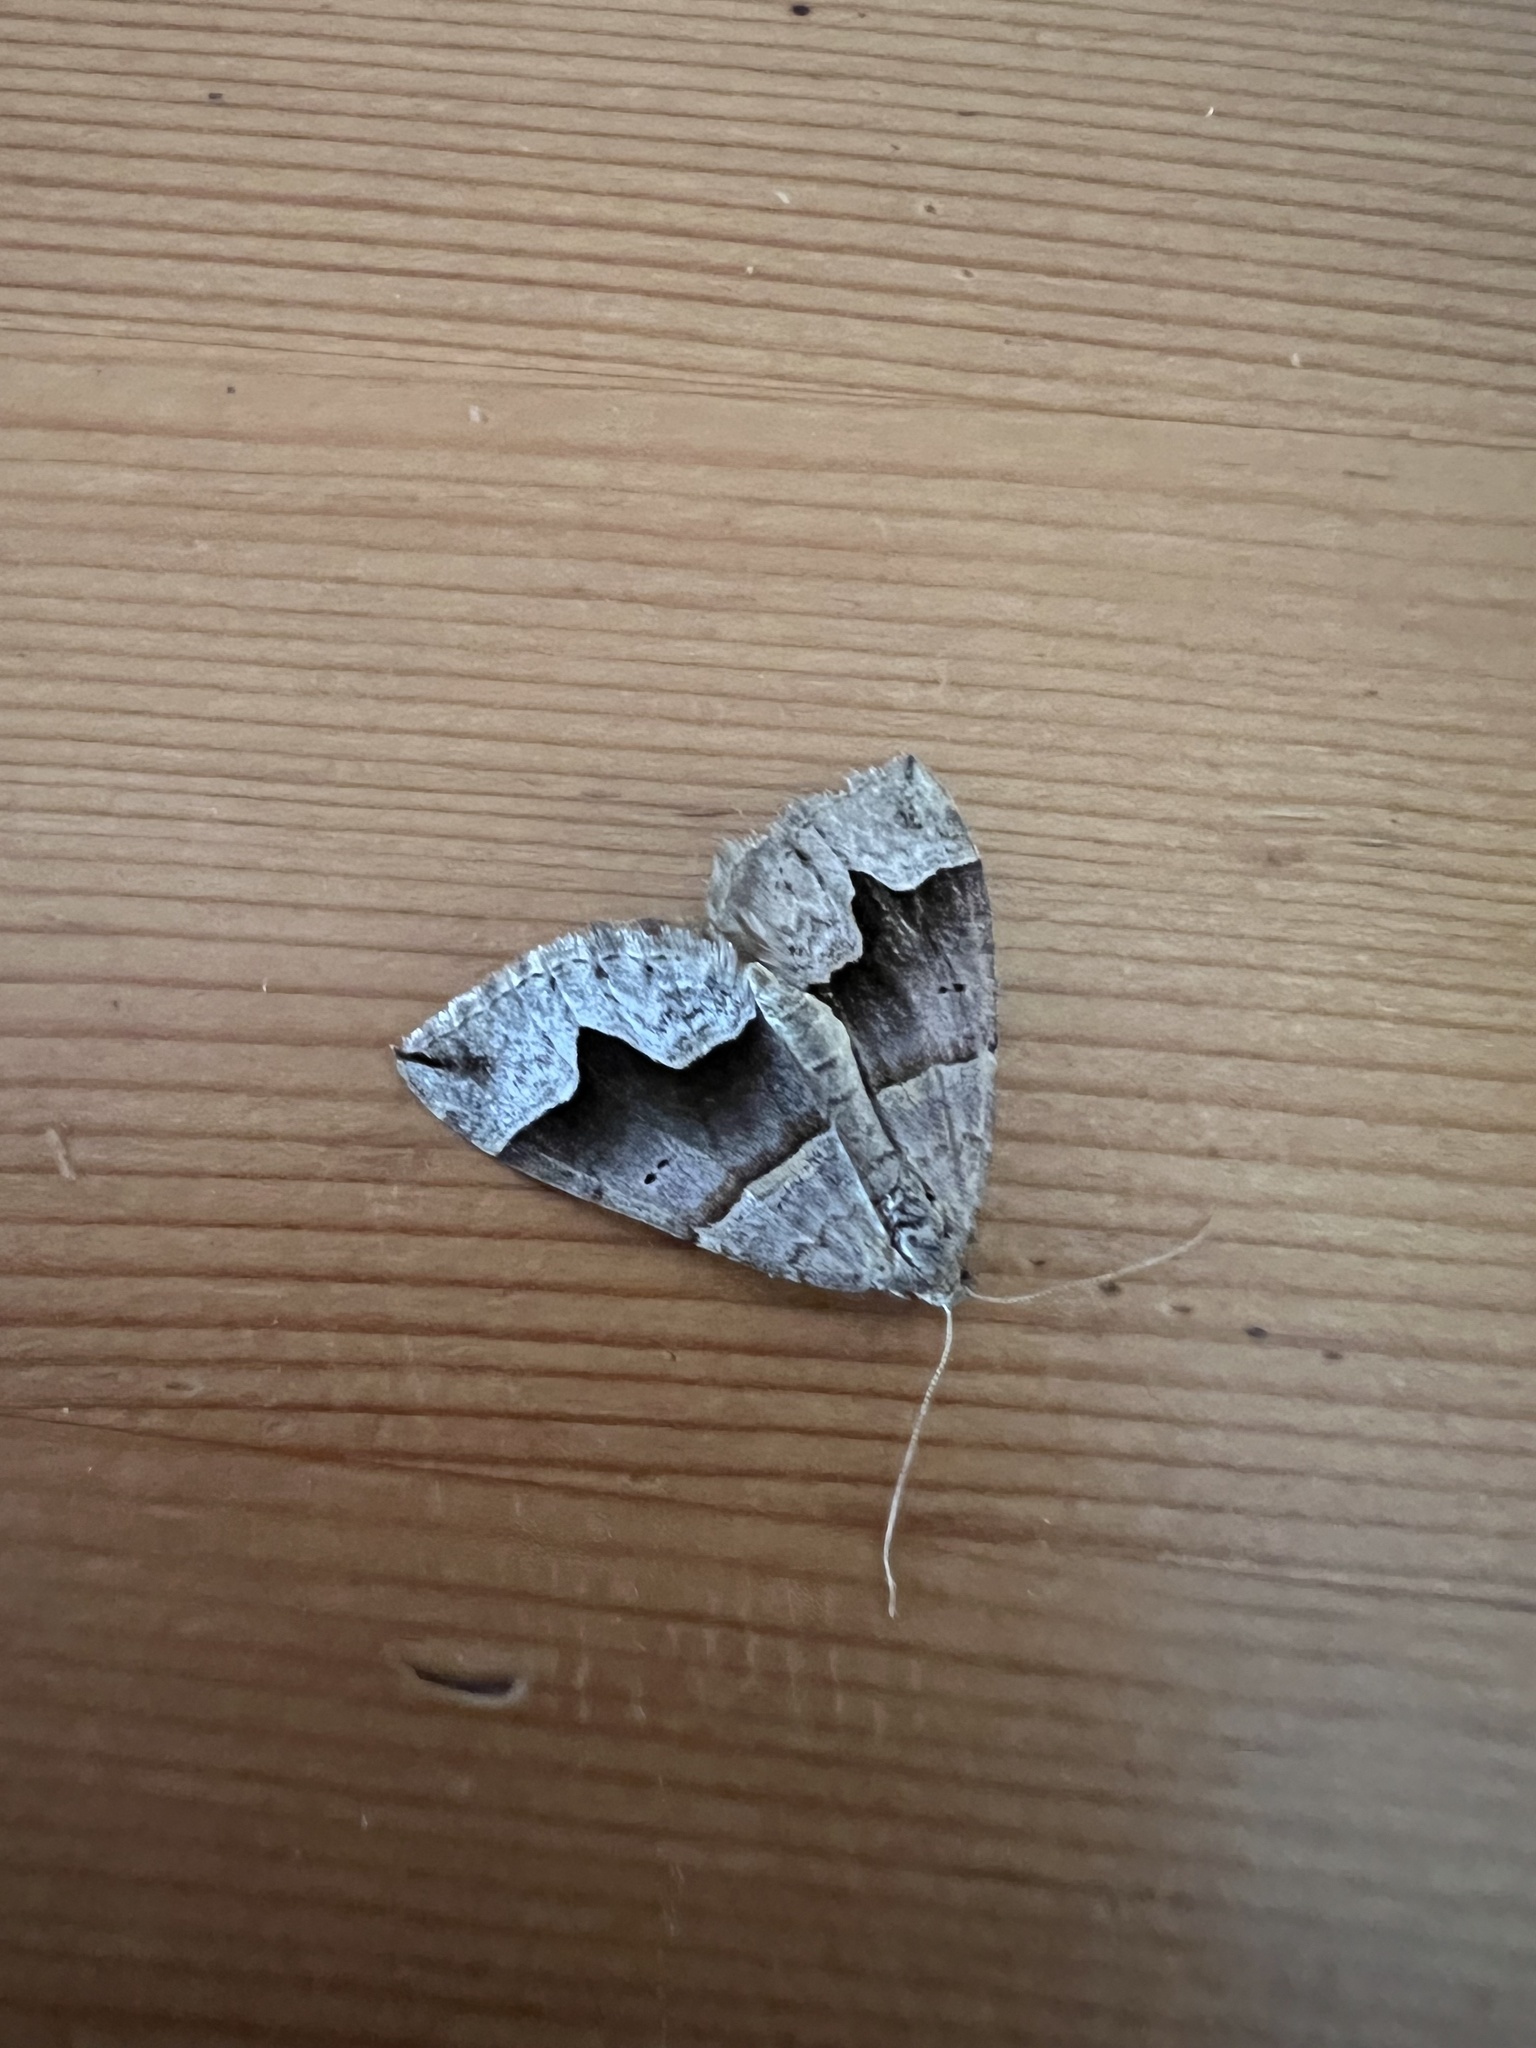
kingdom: Animalia
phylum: Arthropoda
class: Insecta
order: Lepidoptera
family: Geometridae
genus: Scotopteryx
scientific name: Scotopteryx moeniata
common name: Fortified carpet
